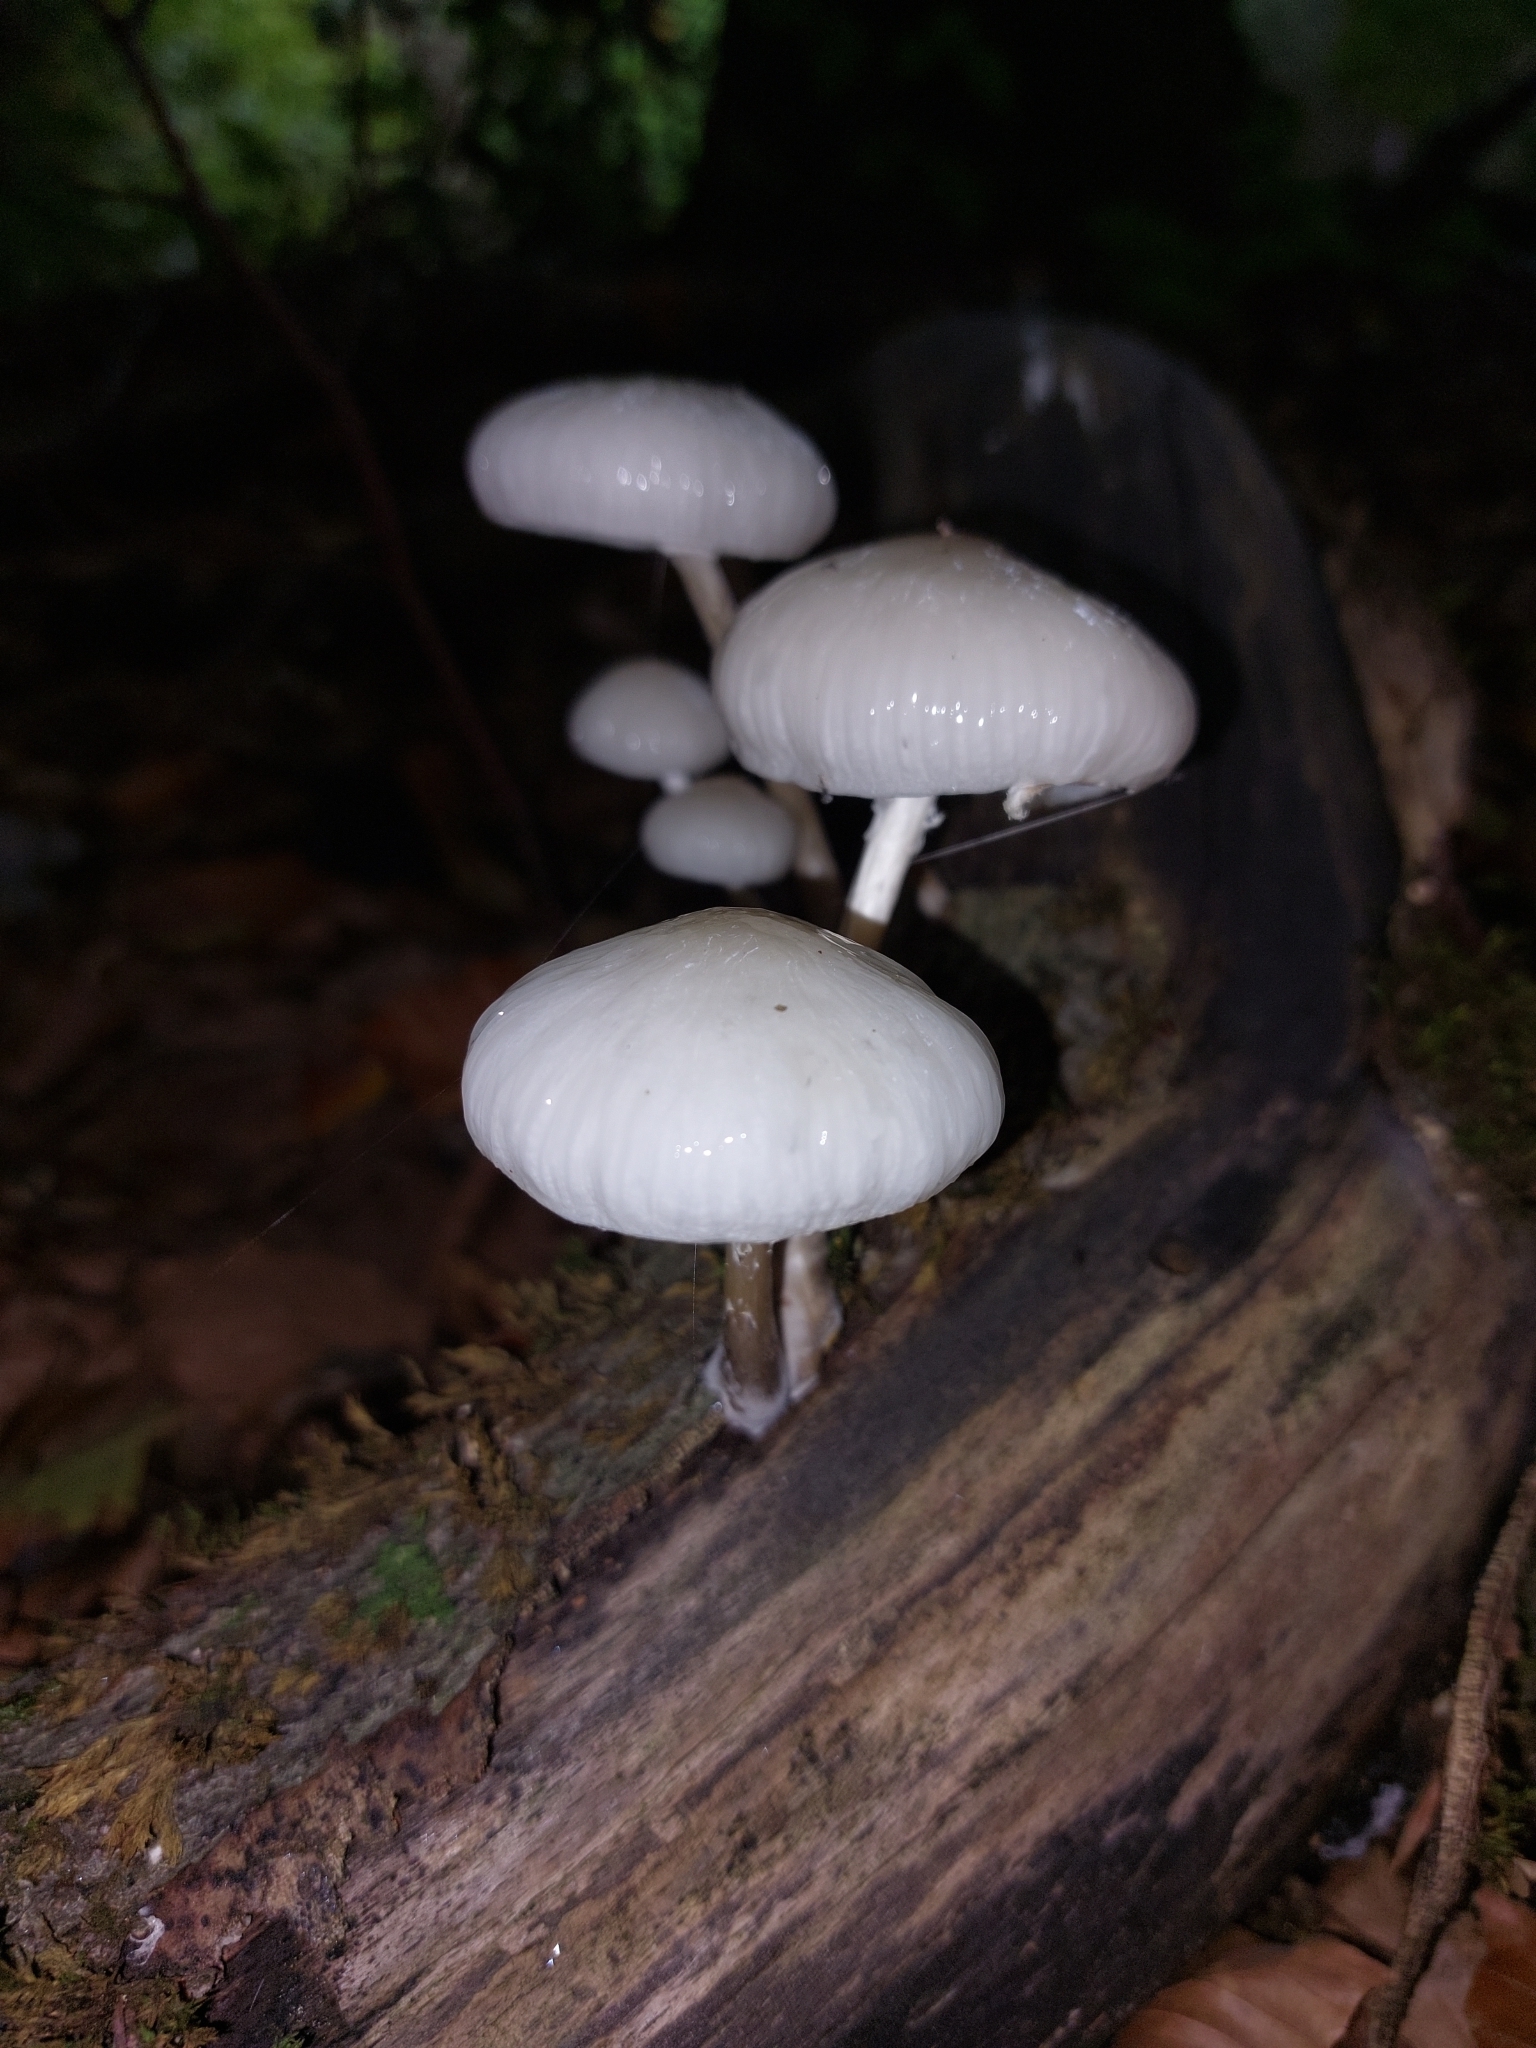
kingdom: Fungi
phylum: Basidiomycota
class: Agaricomycetes
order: Agaricales
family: Physalacriaceae
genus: Mucidula
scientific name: Mucidula mucida
